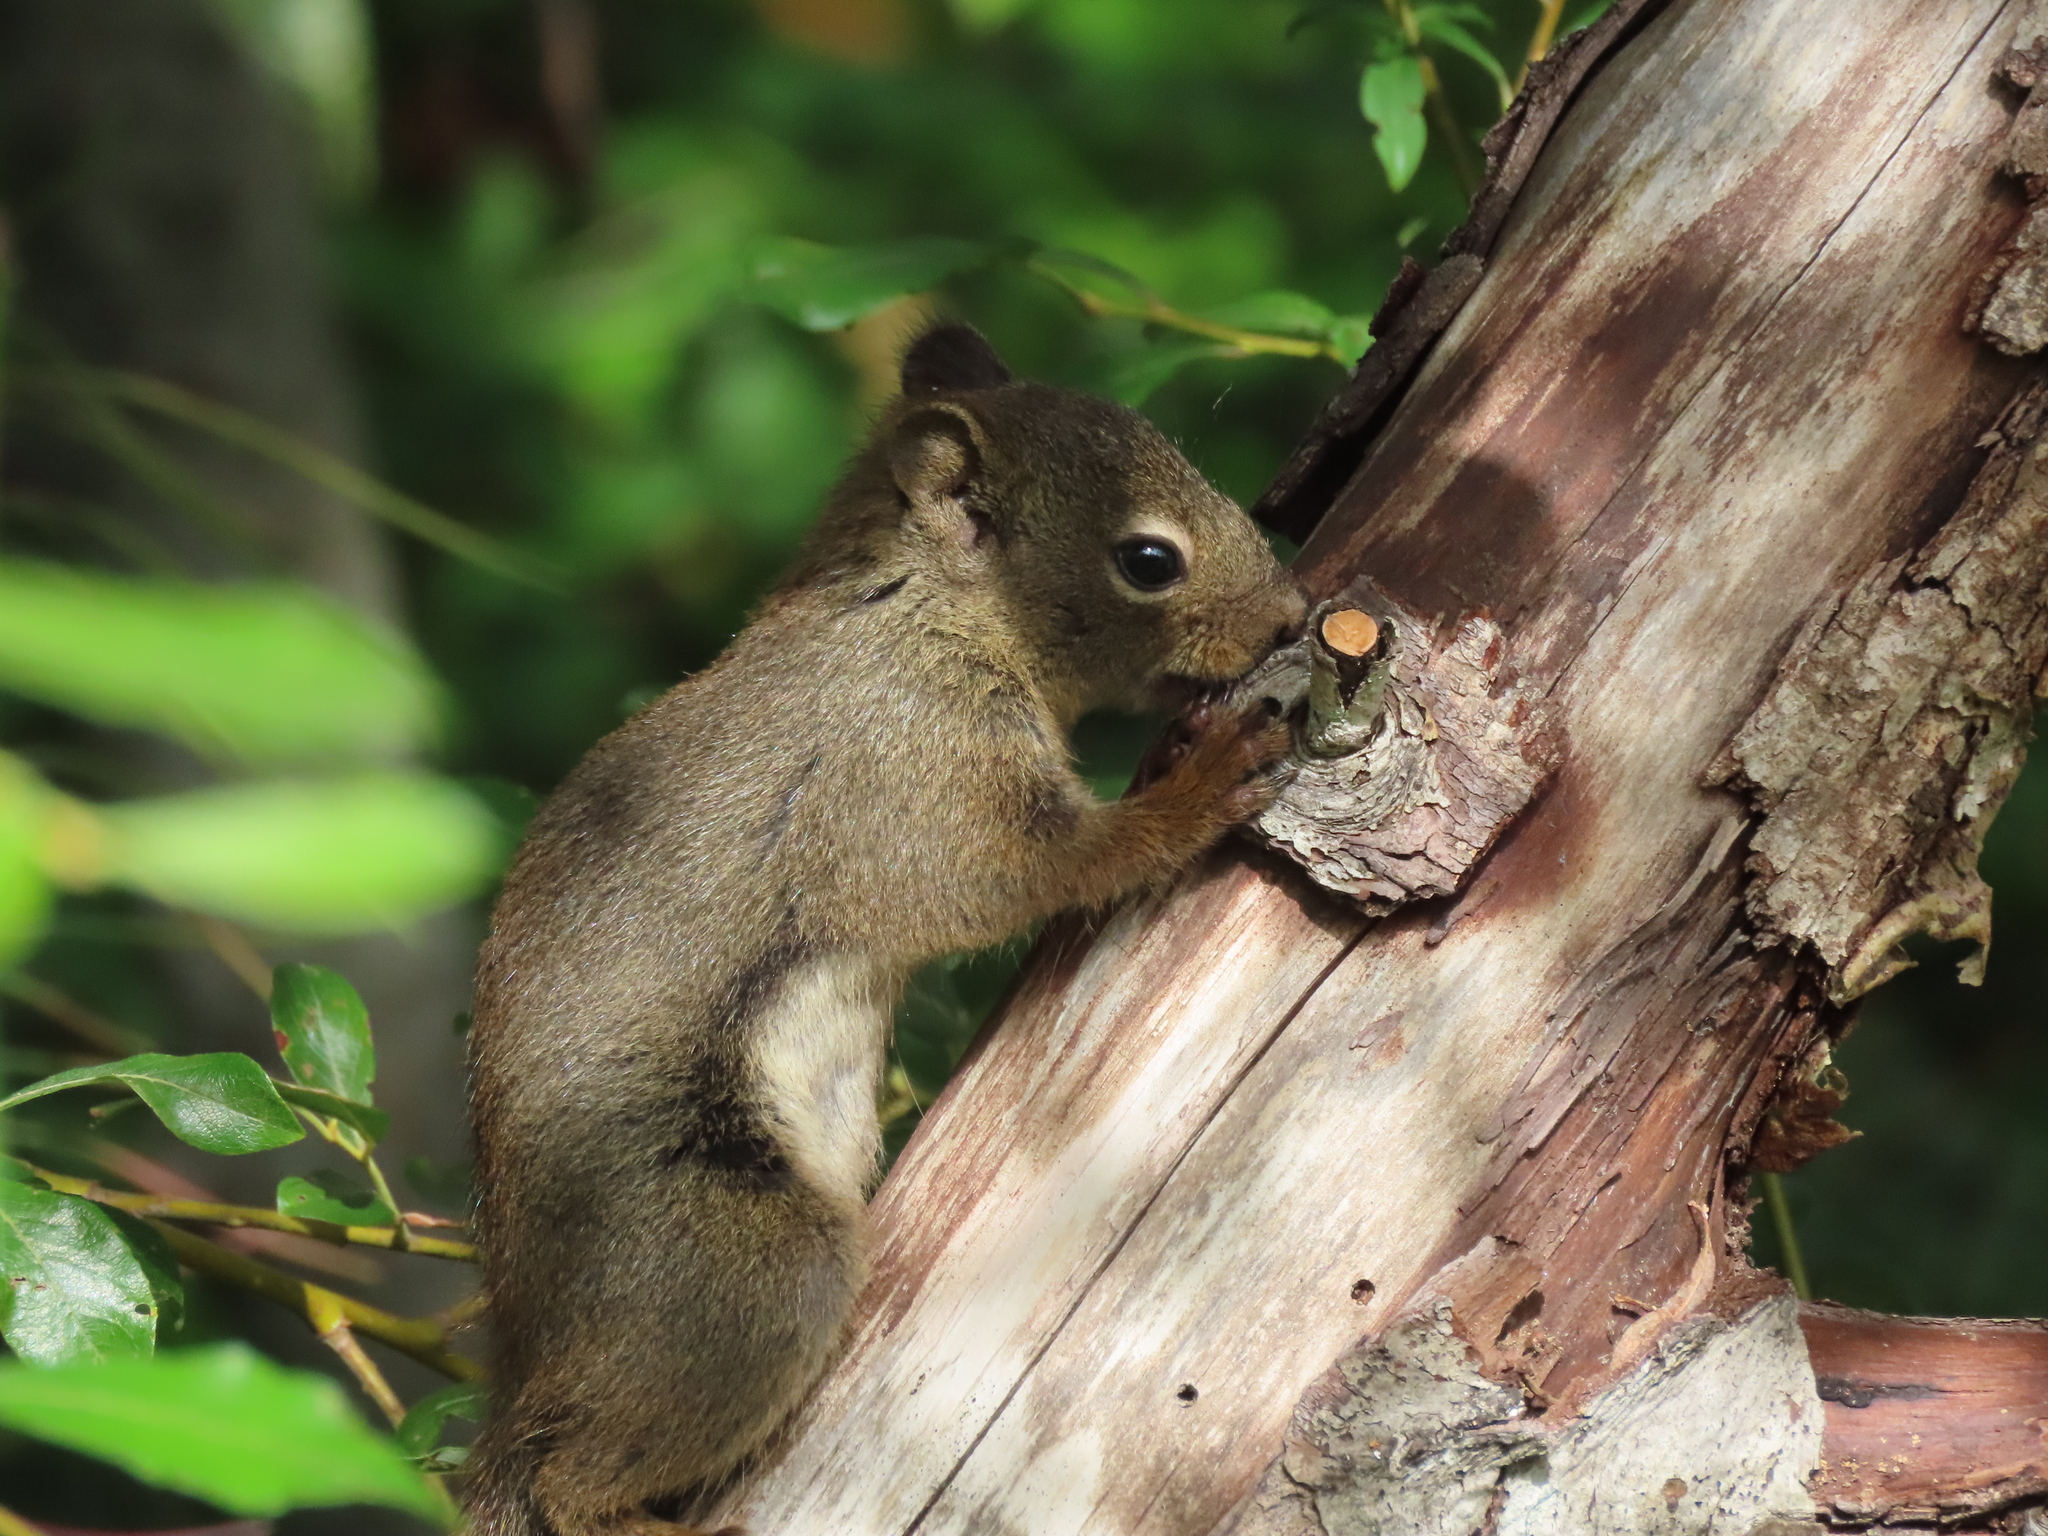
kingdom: Animalia
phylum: Chordata
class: Mammalia
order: Rodentia
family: Sciuridae
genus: Tamiasciurus
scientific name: Tamiasciurus hudsonicus
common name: Red squirrel
